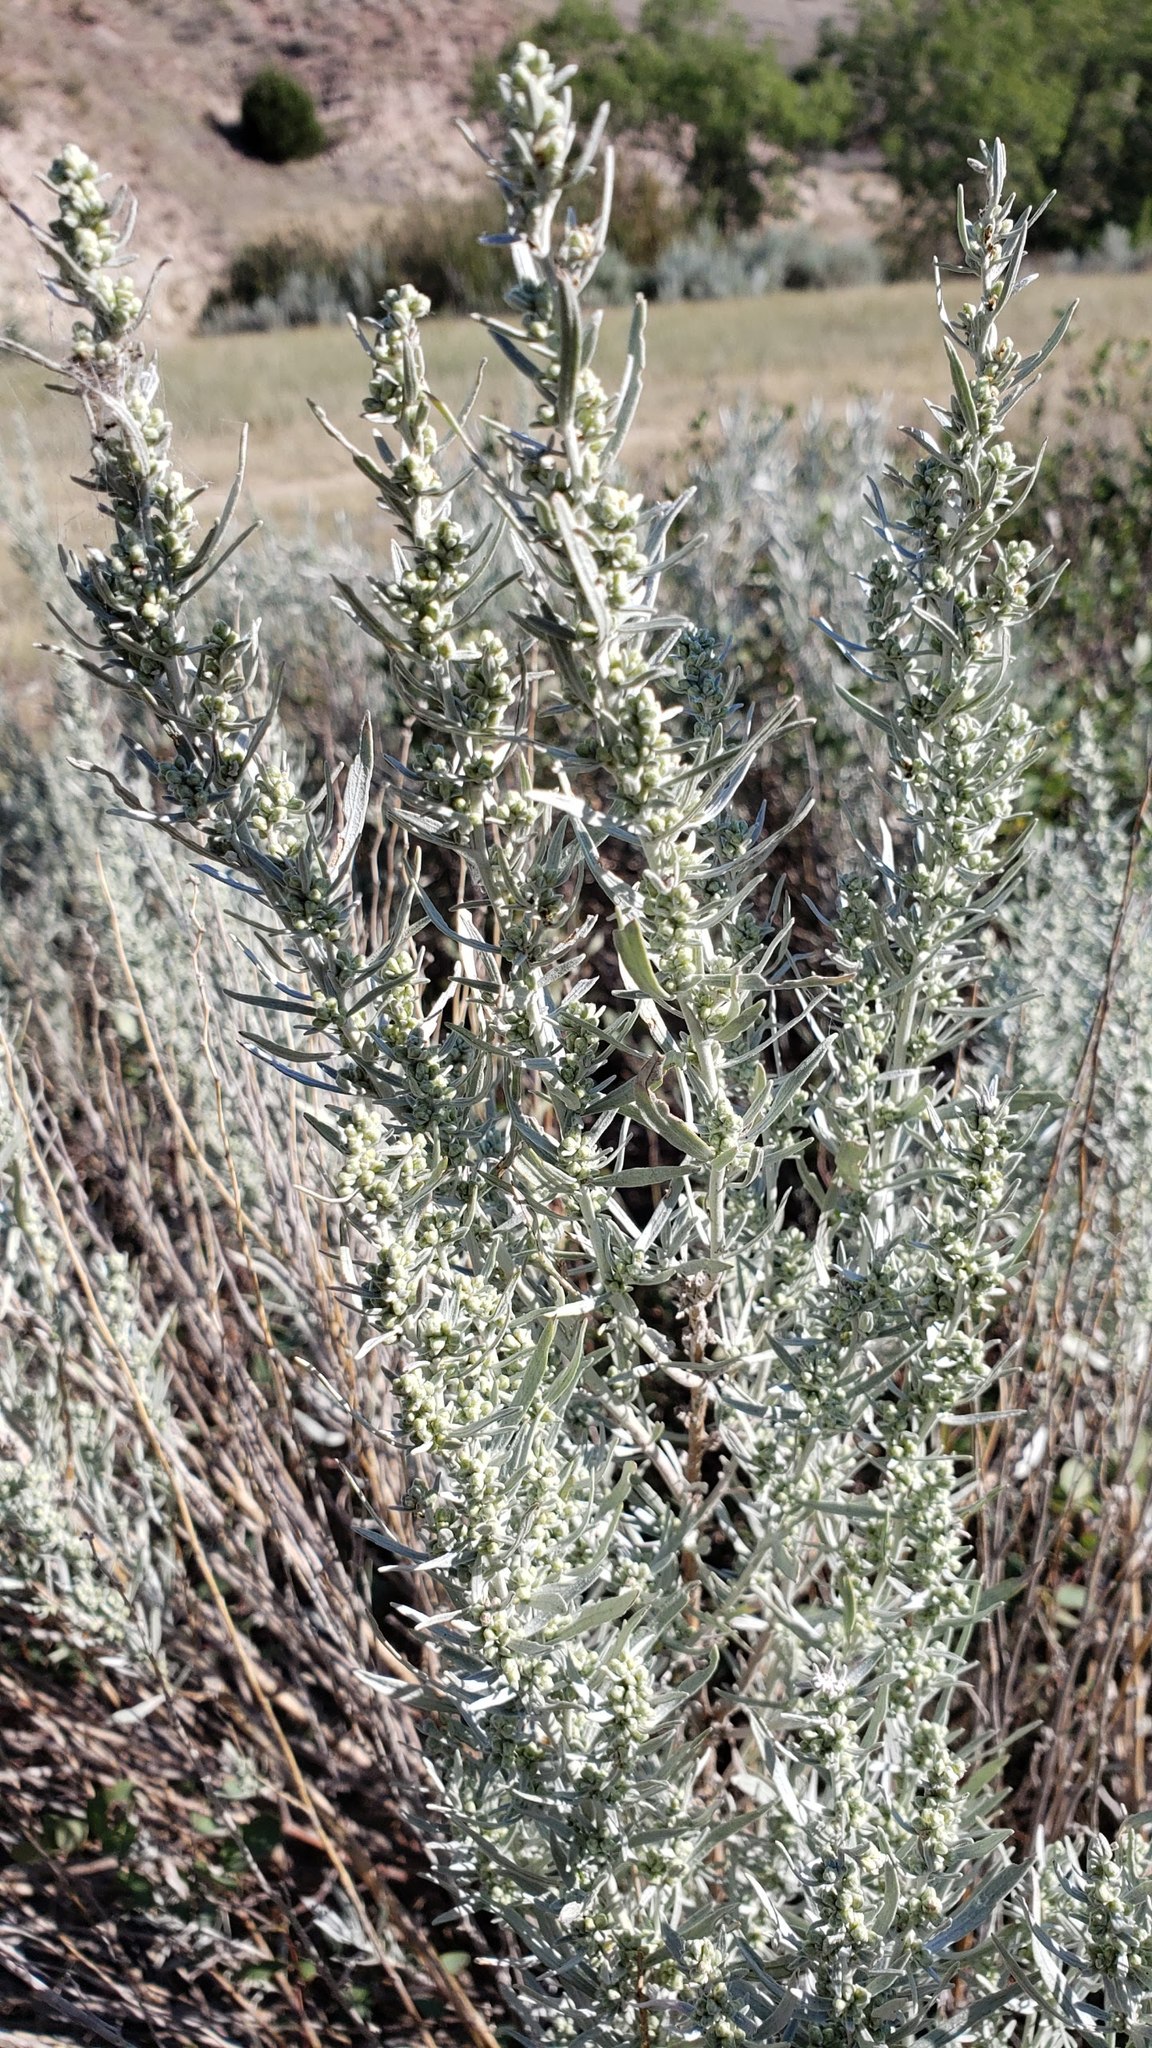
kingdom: Plantae
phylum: Tracheophyta
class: Magnoliopsida
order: Asterales
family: Asteraceae
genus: Artemisia
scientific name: Artemisia ludoviciana
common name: Western mugwort
